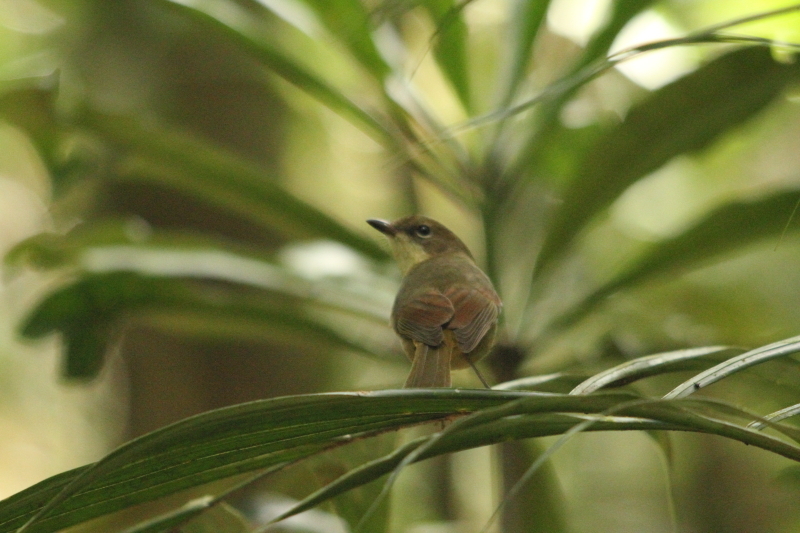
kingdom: Animalia
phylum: Chordata
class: Aves
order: Passeriformes
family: Pachycephalidae
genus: Pachycephala
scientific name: Pachycephala caledonica
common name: Melanesian whistler
